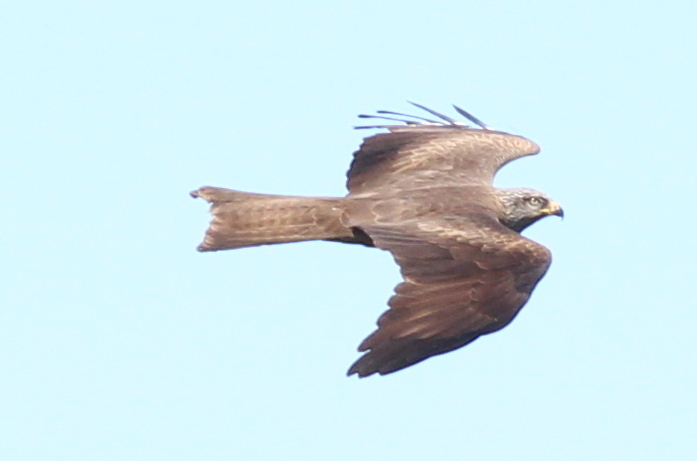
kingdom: Animalia
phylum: Chordata
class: Aves
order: Accipitriformes
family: Accipitridae
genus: Milvus
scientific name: Milvus migrans
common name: Black kite
